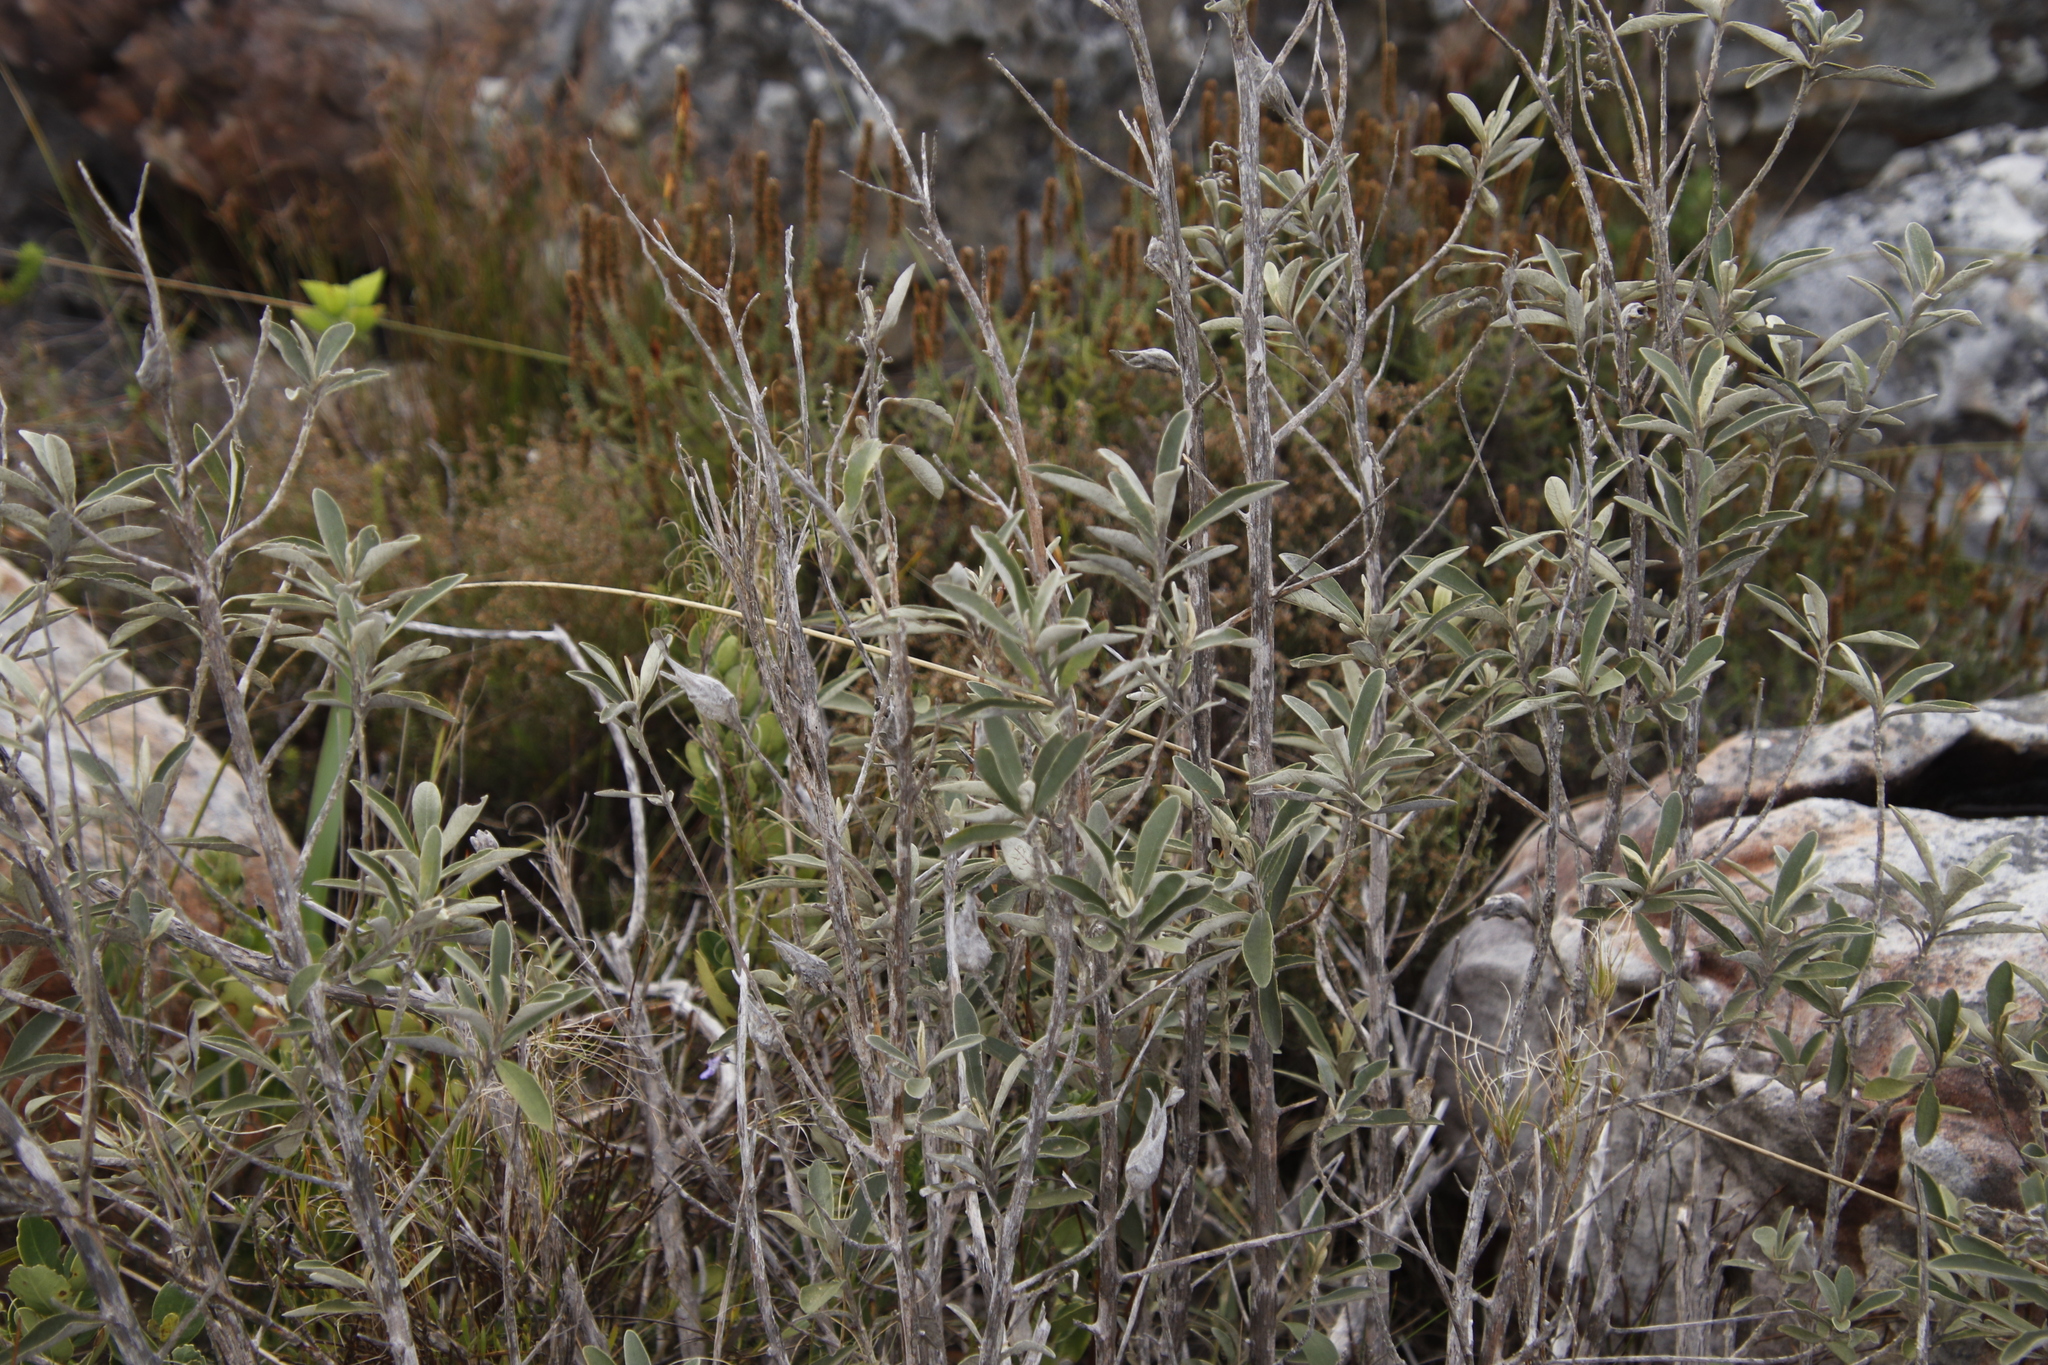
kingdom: Plantae
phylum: Tracheophyta
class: Magnoliopsida
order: Asterales
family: Asteraceae
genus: Tarchonanthus
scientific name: Tarchonanthus littoralis
